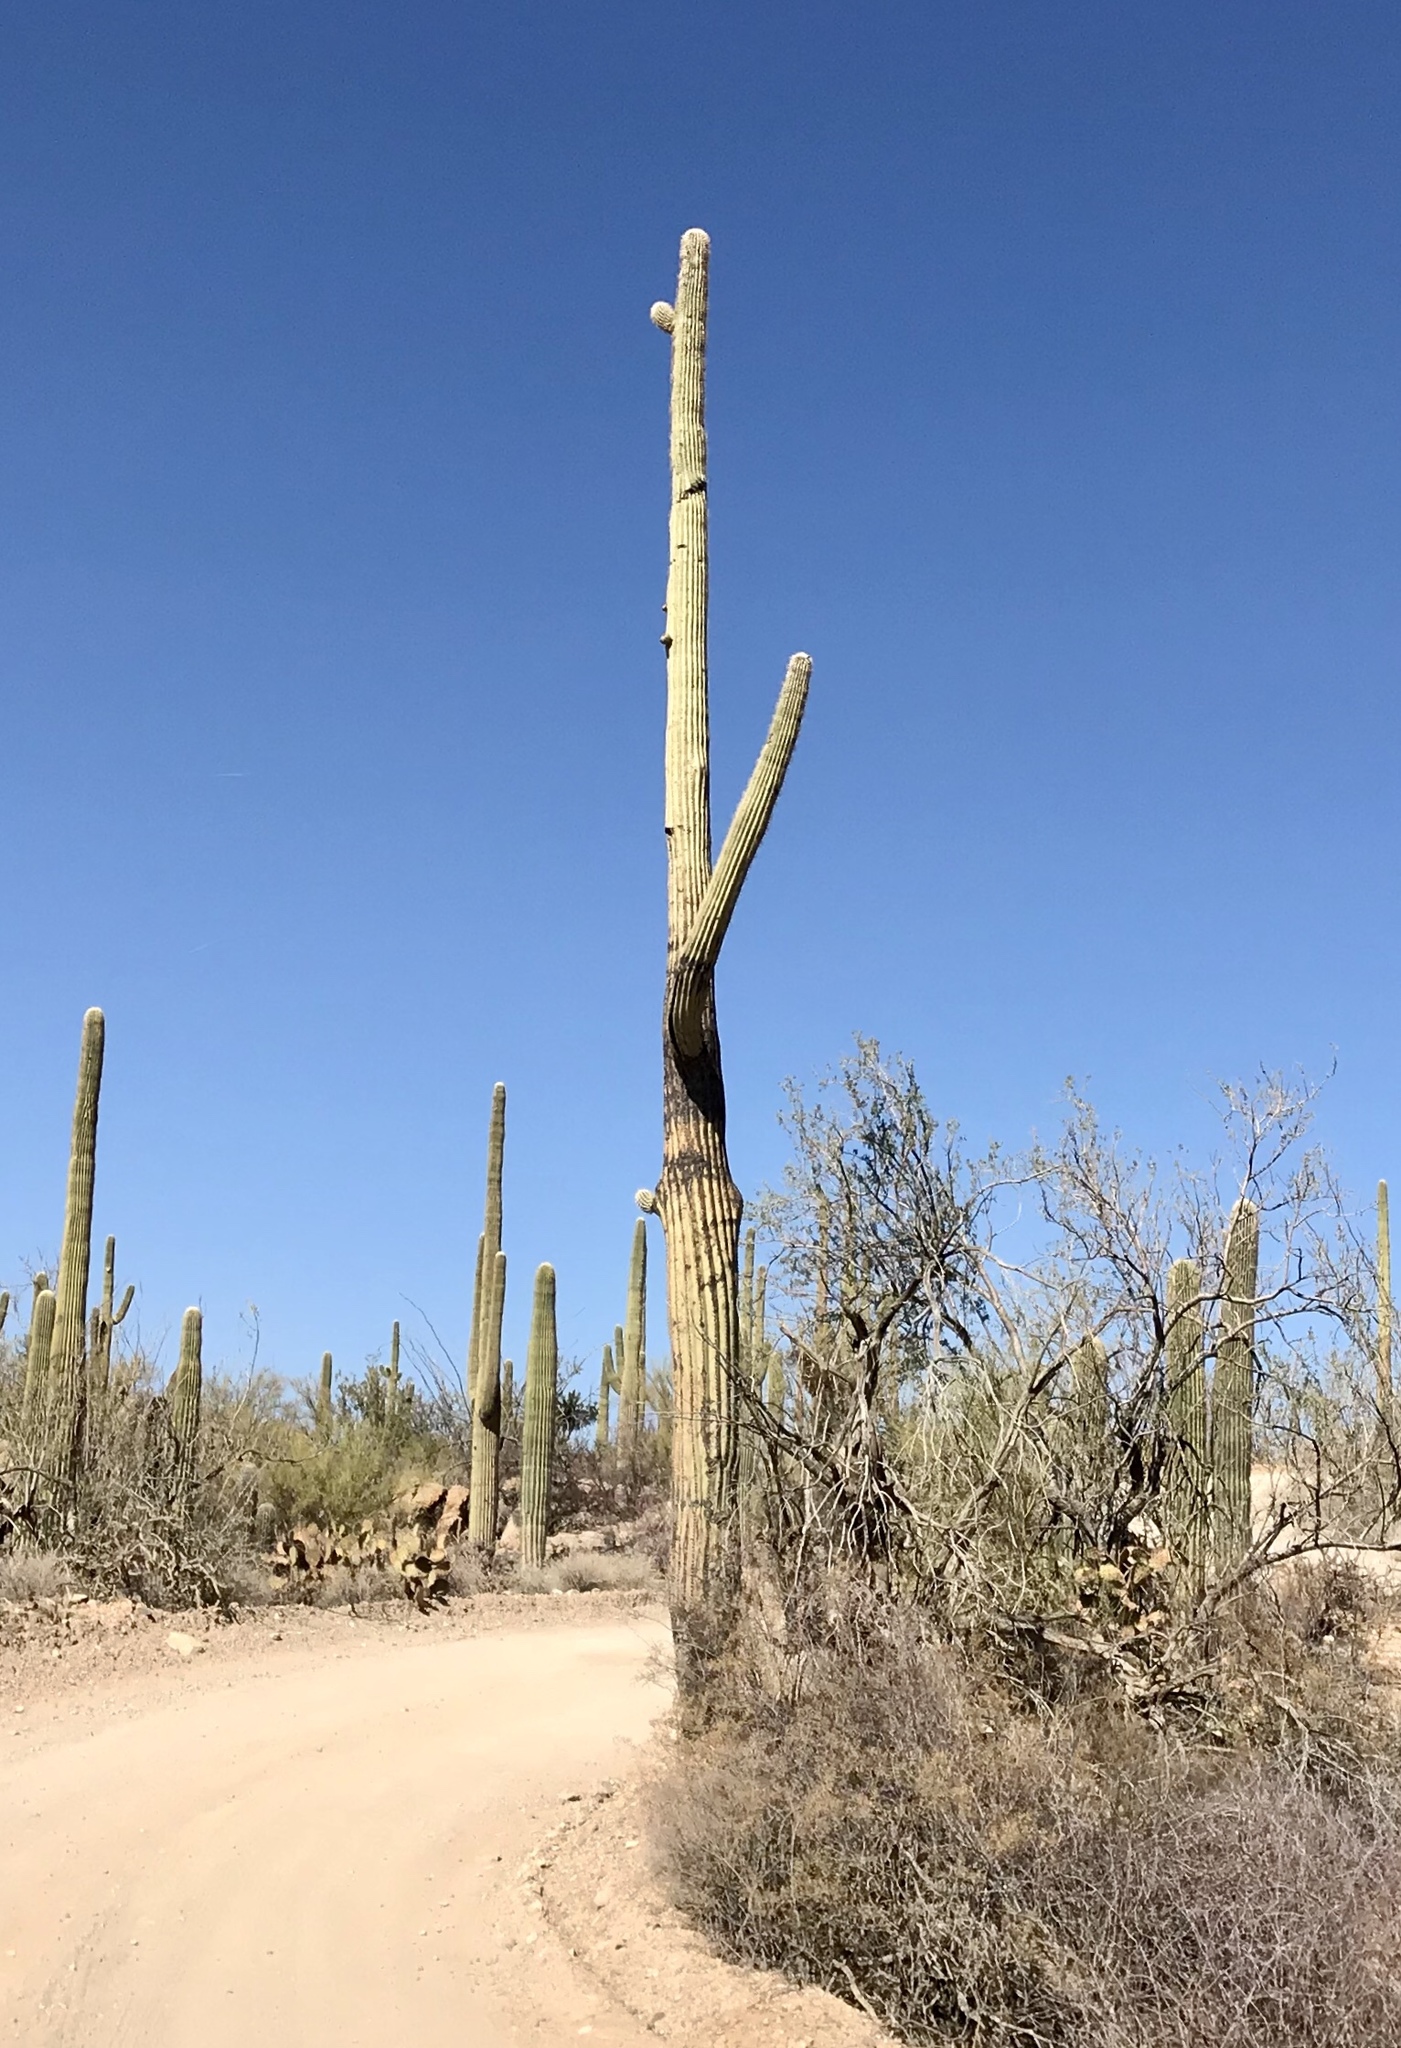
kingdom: Plantae
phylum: Tracheophyta
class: Magnoliopsida
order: Caryophyllales
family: Cactaceae
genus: Carnegiea
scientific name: Carnegiea gigantea
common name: Saguaro
